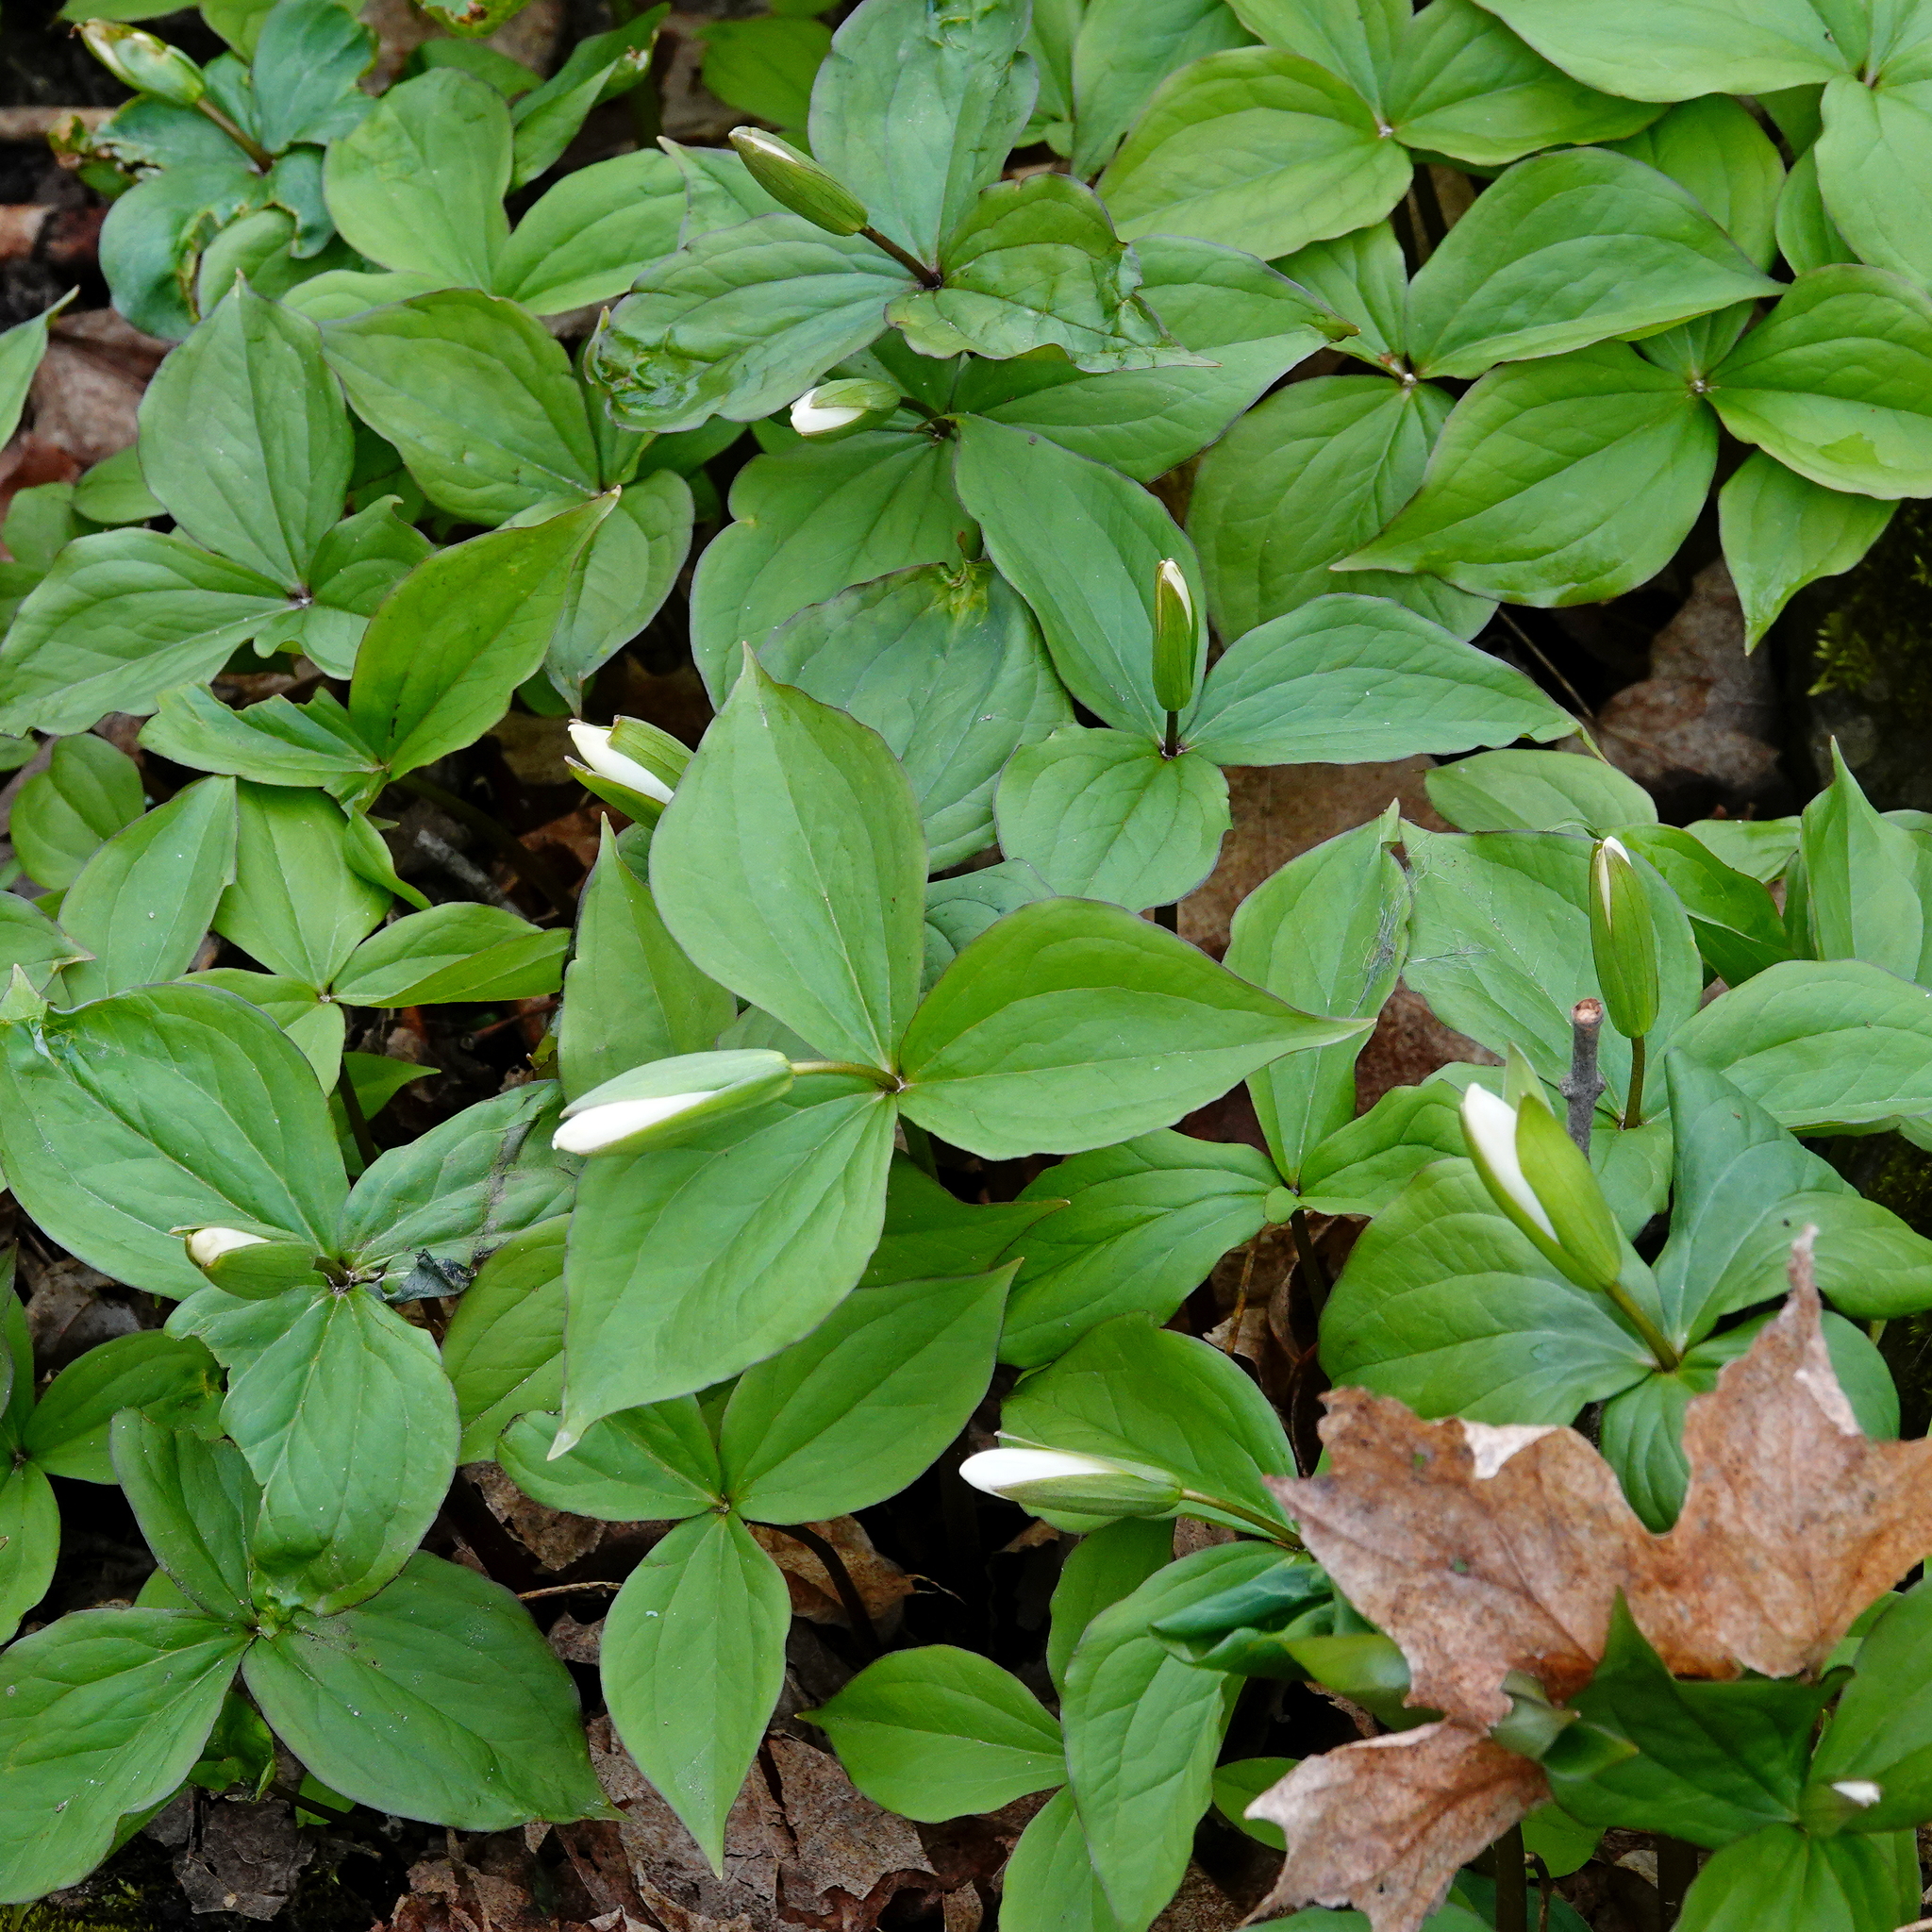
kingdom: Plantae
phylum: Tracheophyta
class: Liliopsida
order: Liliales
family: Melanthiaceae
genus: Trillium
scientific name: Trillium grandiflorum
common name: Great white trillium
